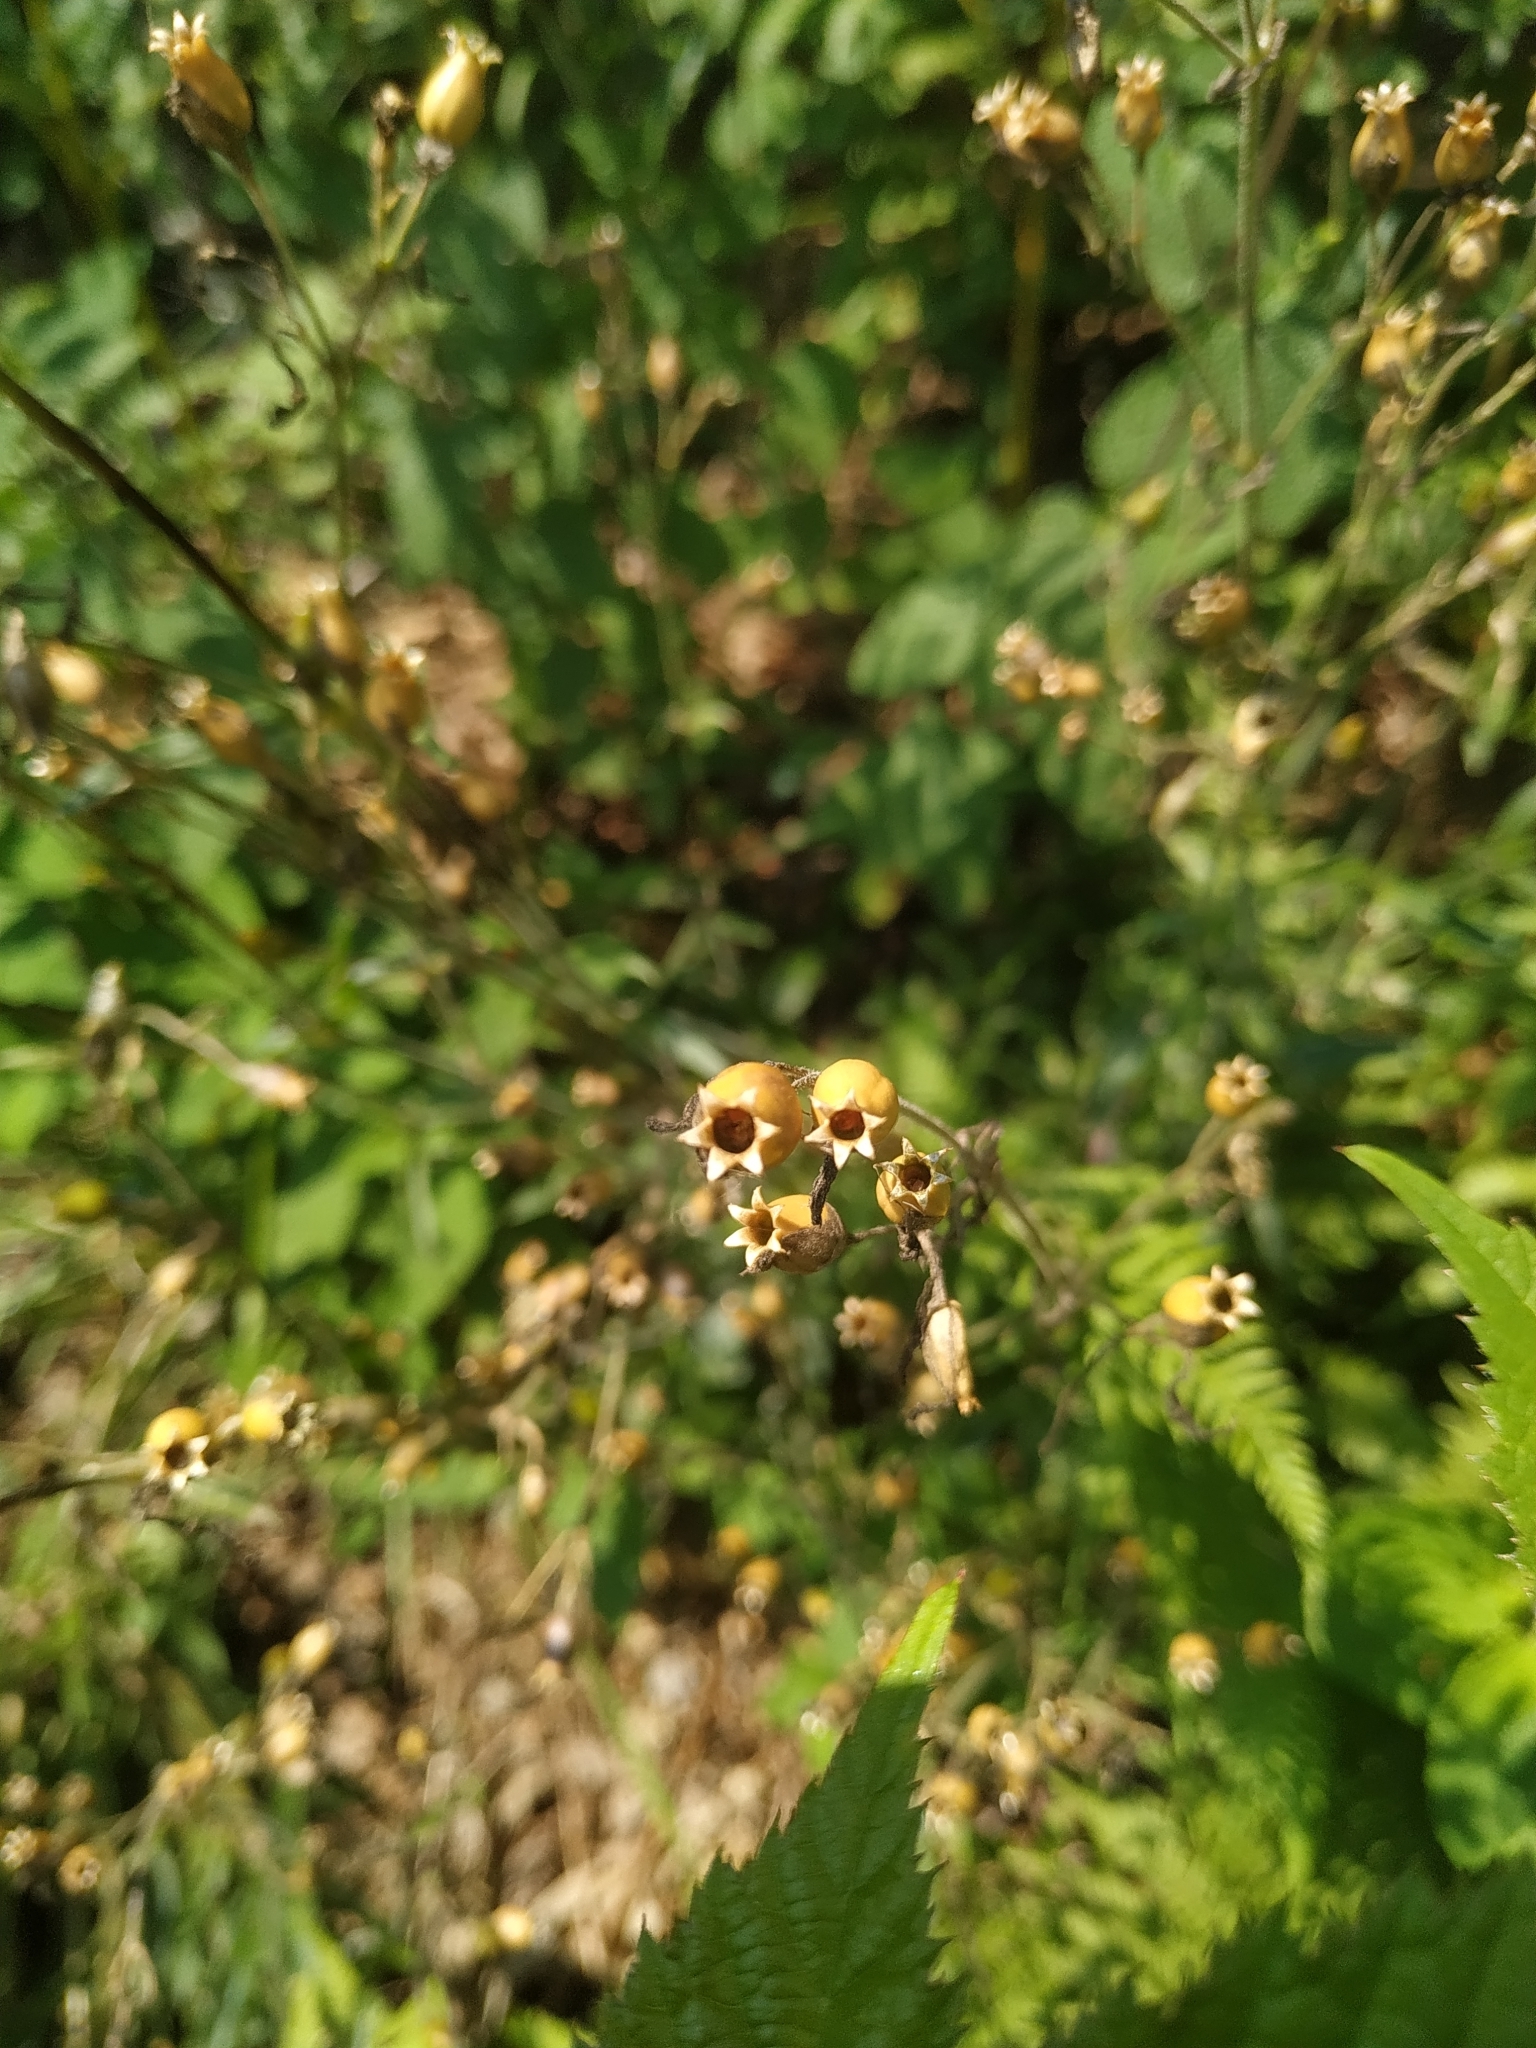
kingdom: Plantae
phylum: Tracheophyta
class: Magnoliopsida
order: Caryophyllales
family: Caryophyllaceae
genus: Silene
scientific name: Silene nutans
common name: Nottingham catchfly
